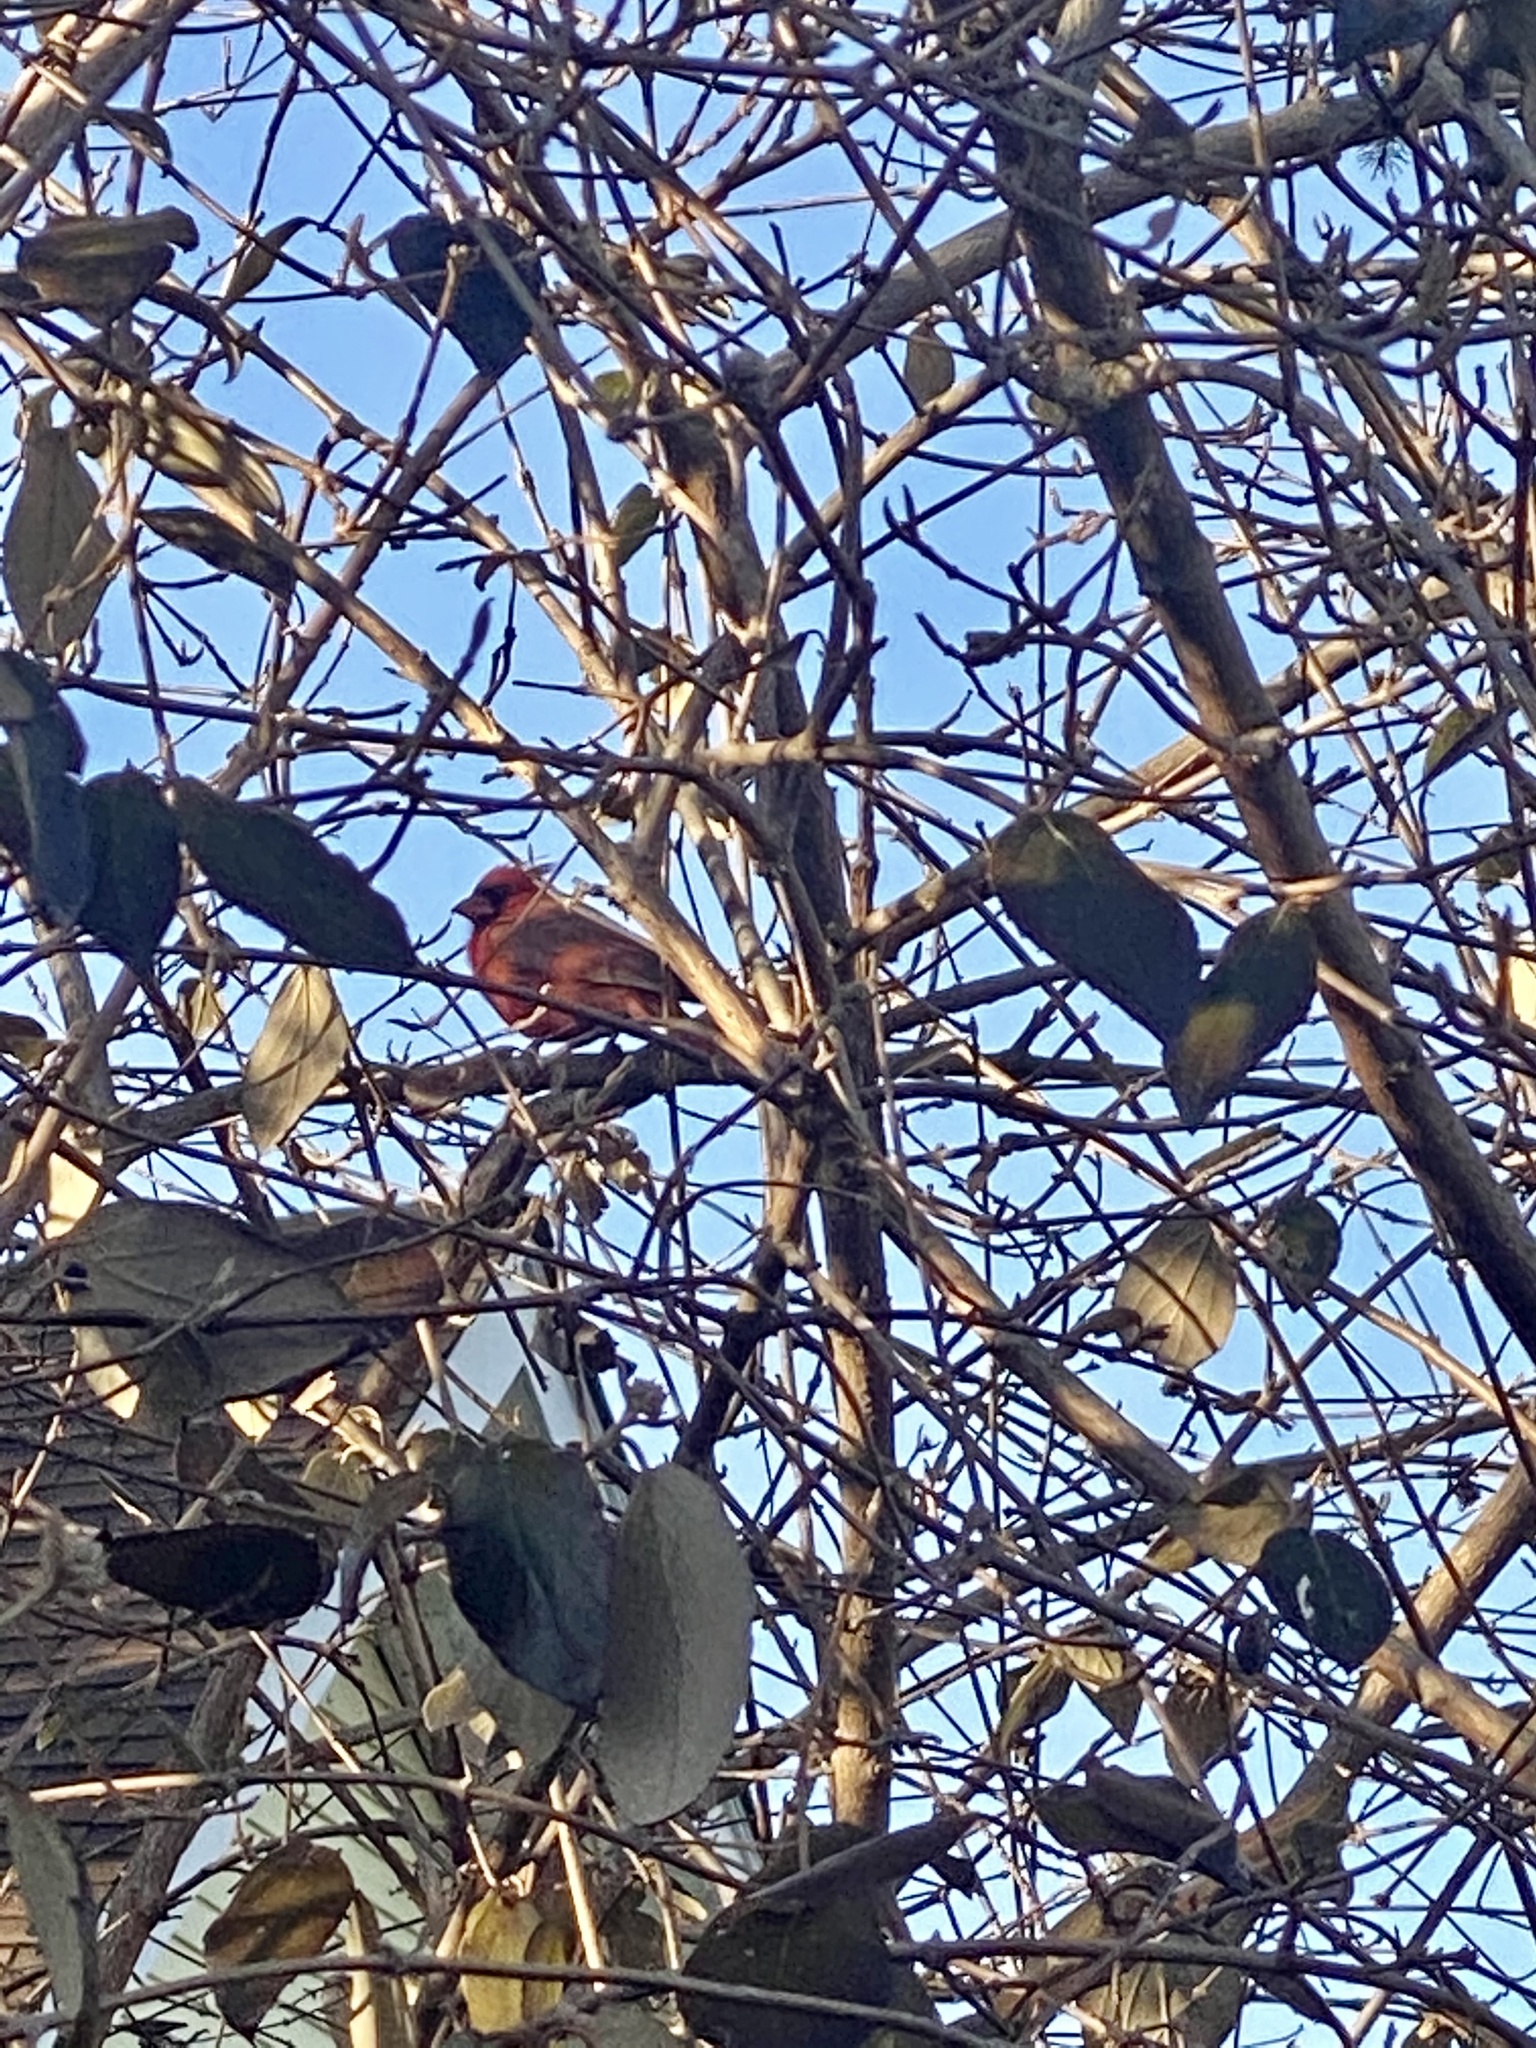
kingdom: Animalia
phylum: Chordata
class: Aves
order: Passeriformes
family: Cardinalidae
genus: Cardinalis
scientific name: Cardinalis cardinalis
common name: Northern cardinal
